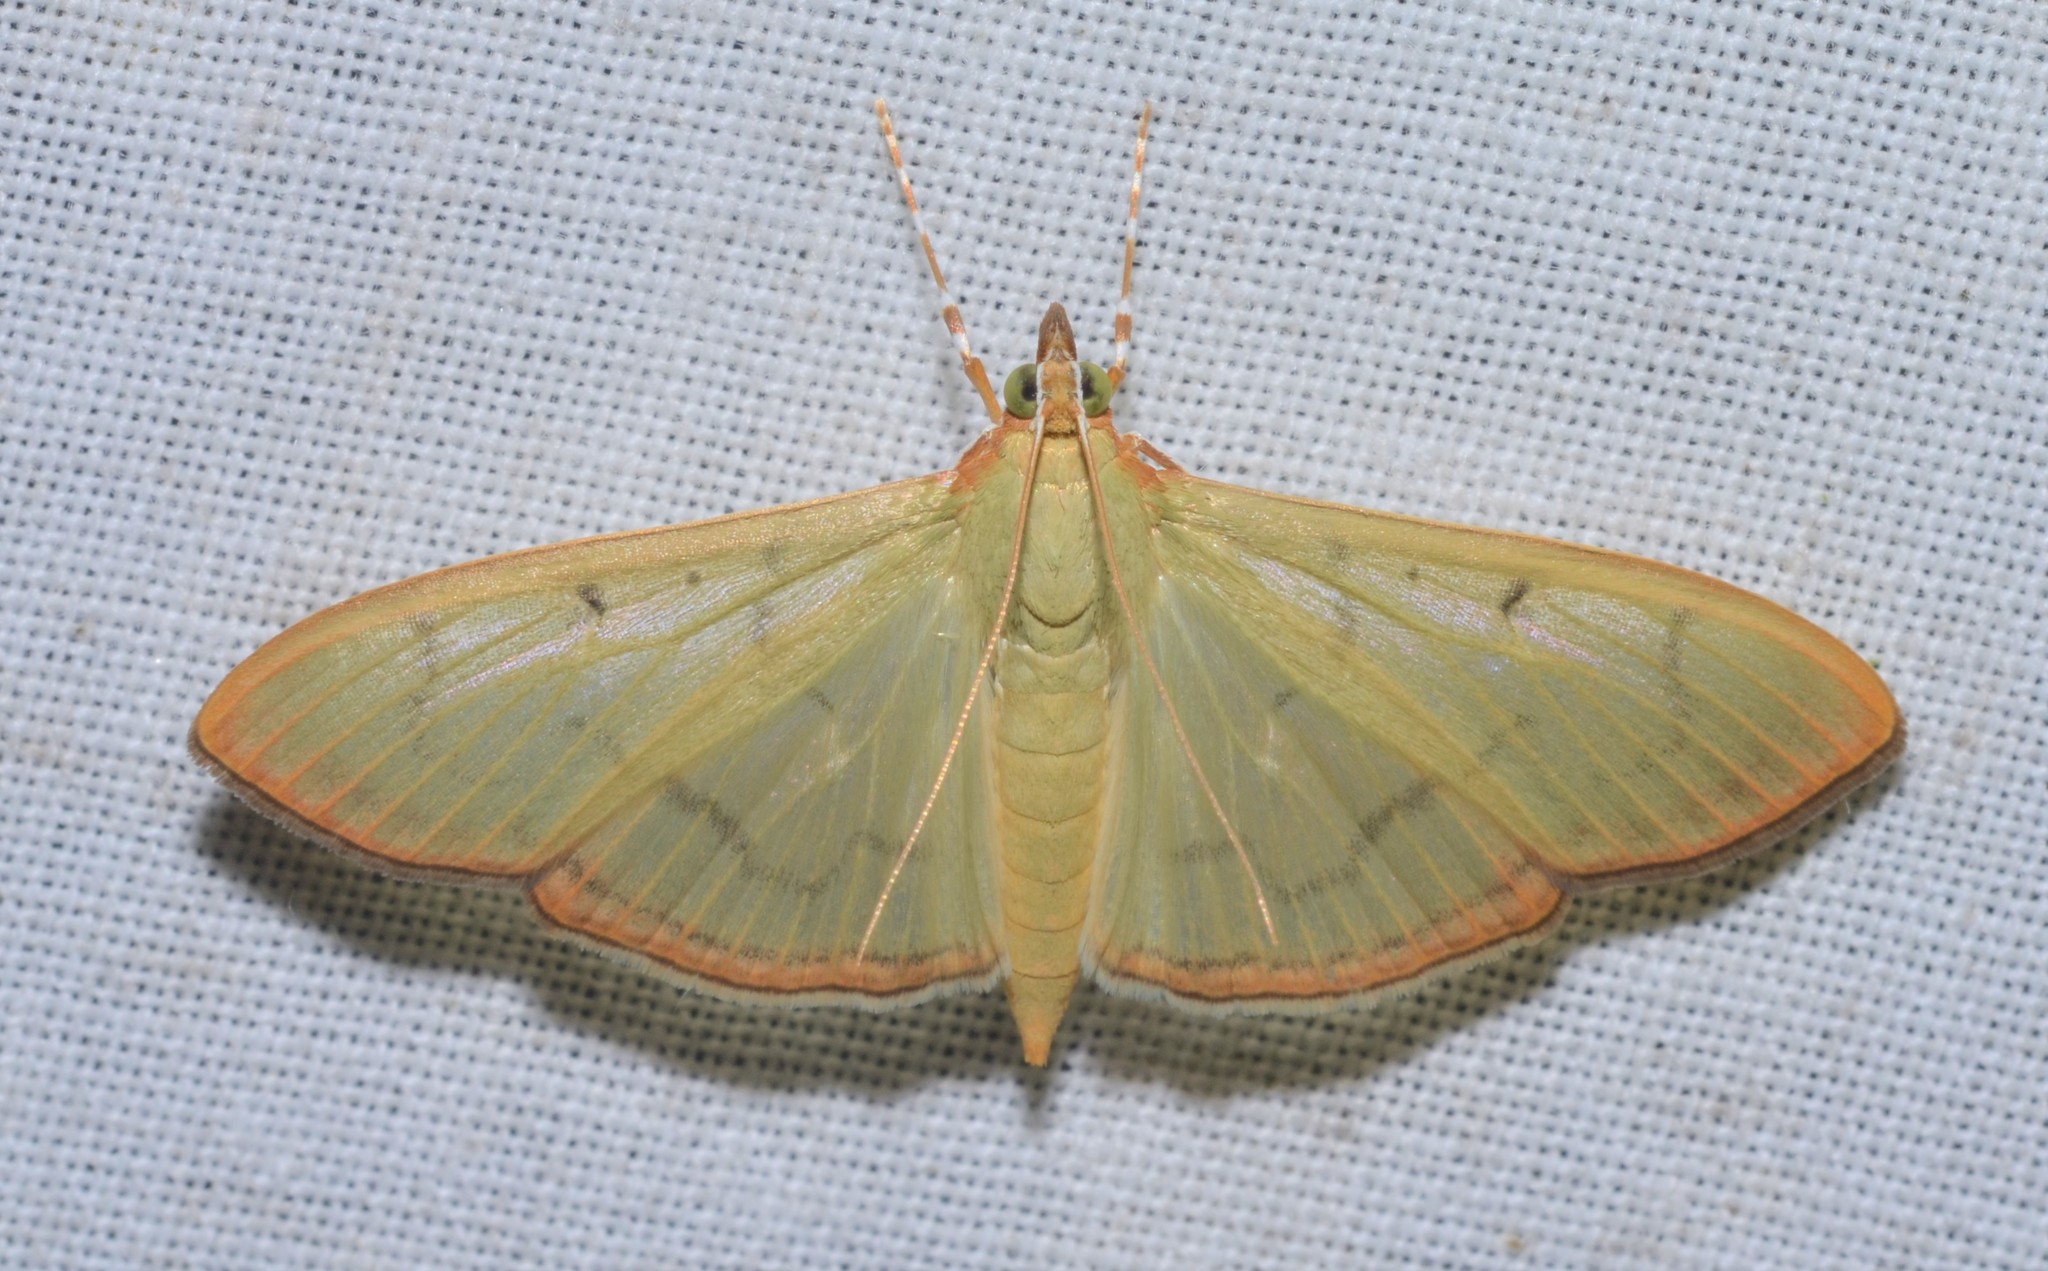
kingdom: Animalia
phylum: Arthropoda
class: Insecta
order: Lepidoptera
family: Crambidae
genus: Condylorrhiza
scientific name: Condylorrhiza vestigialis
